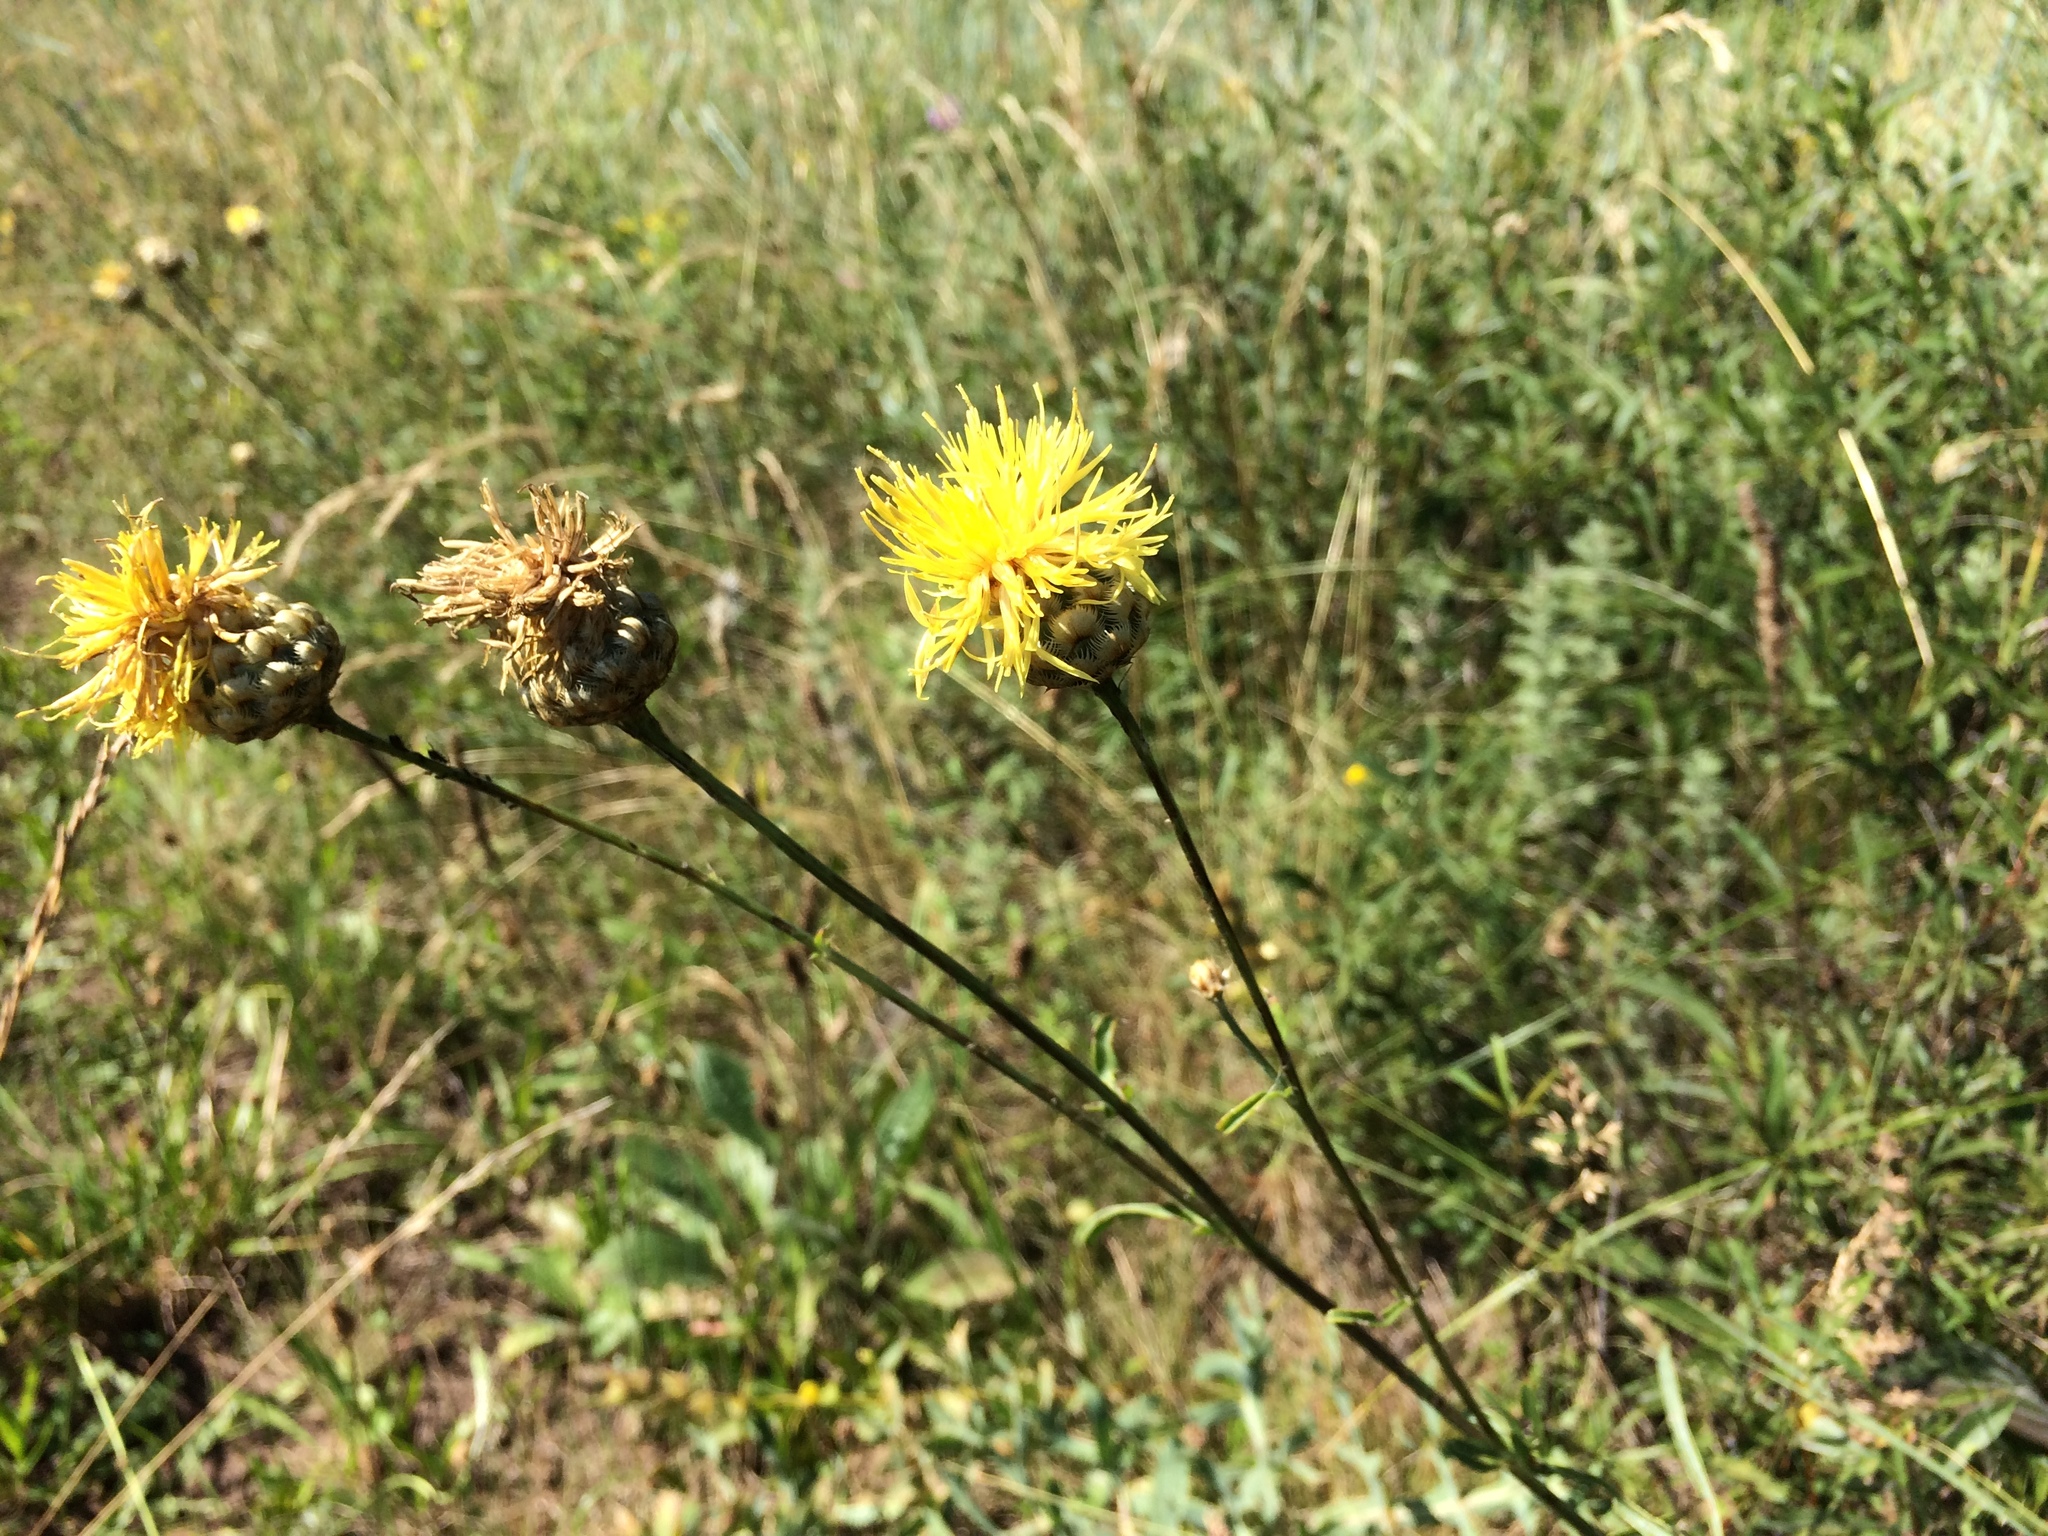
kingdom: Plantae
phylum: Tracheophyta
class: Magnoliopsida
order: Asterales
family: Asteraceae
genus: Centaurea
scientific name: Centaurea orientalis
